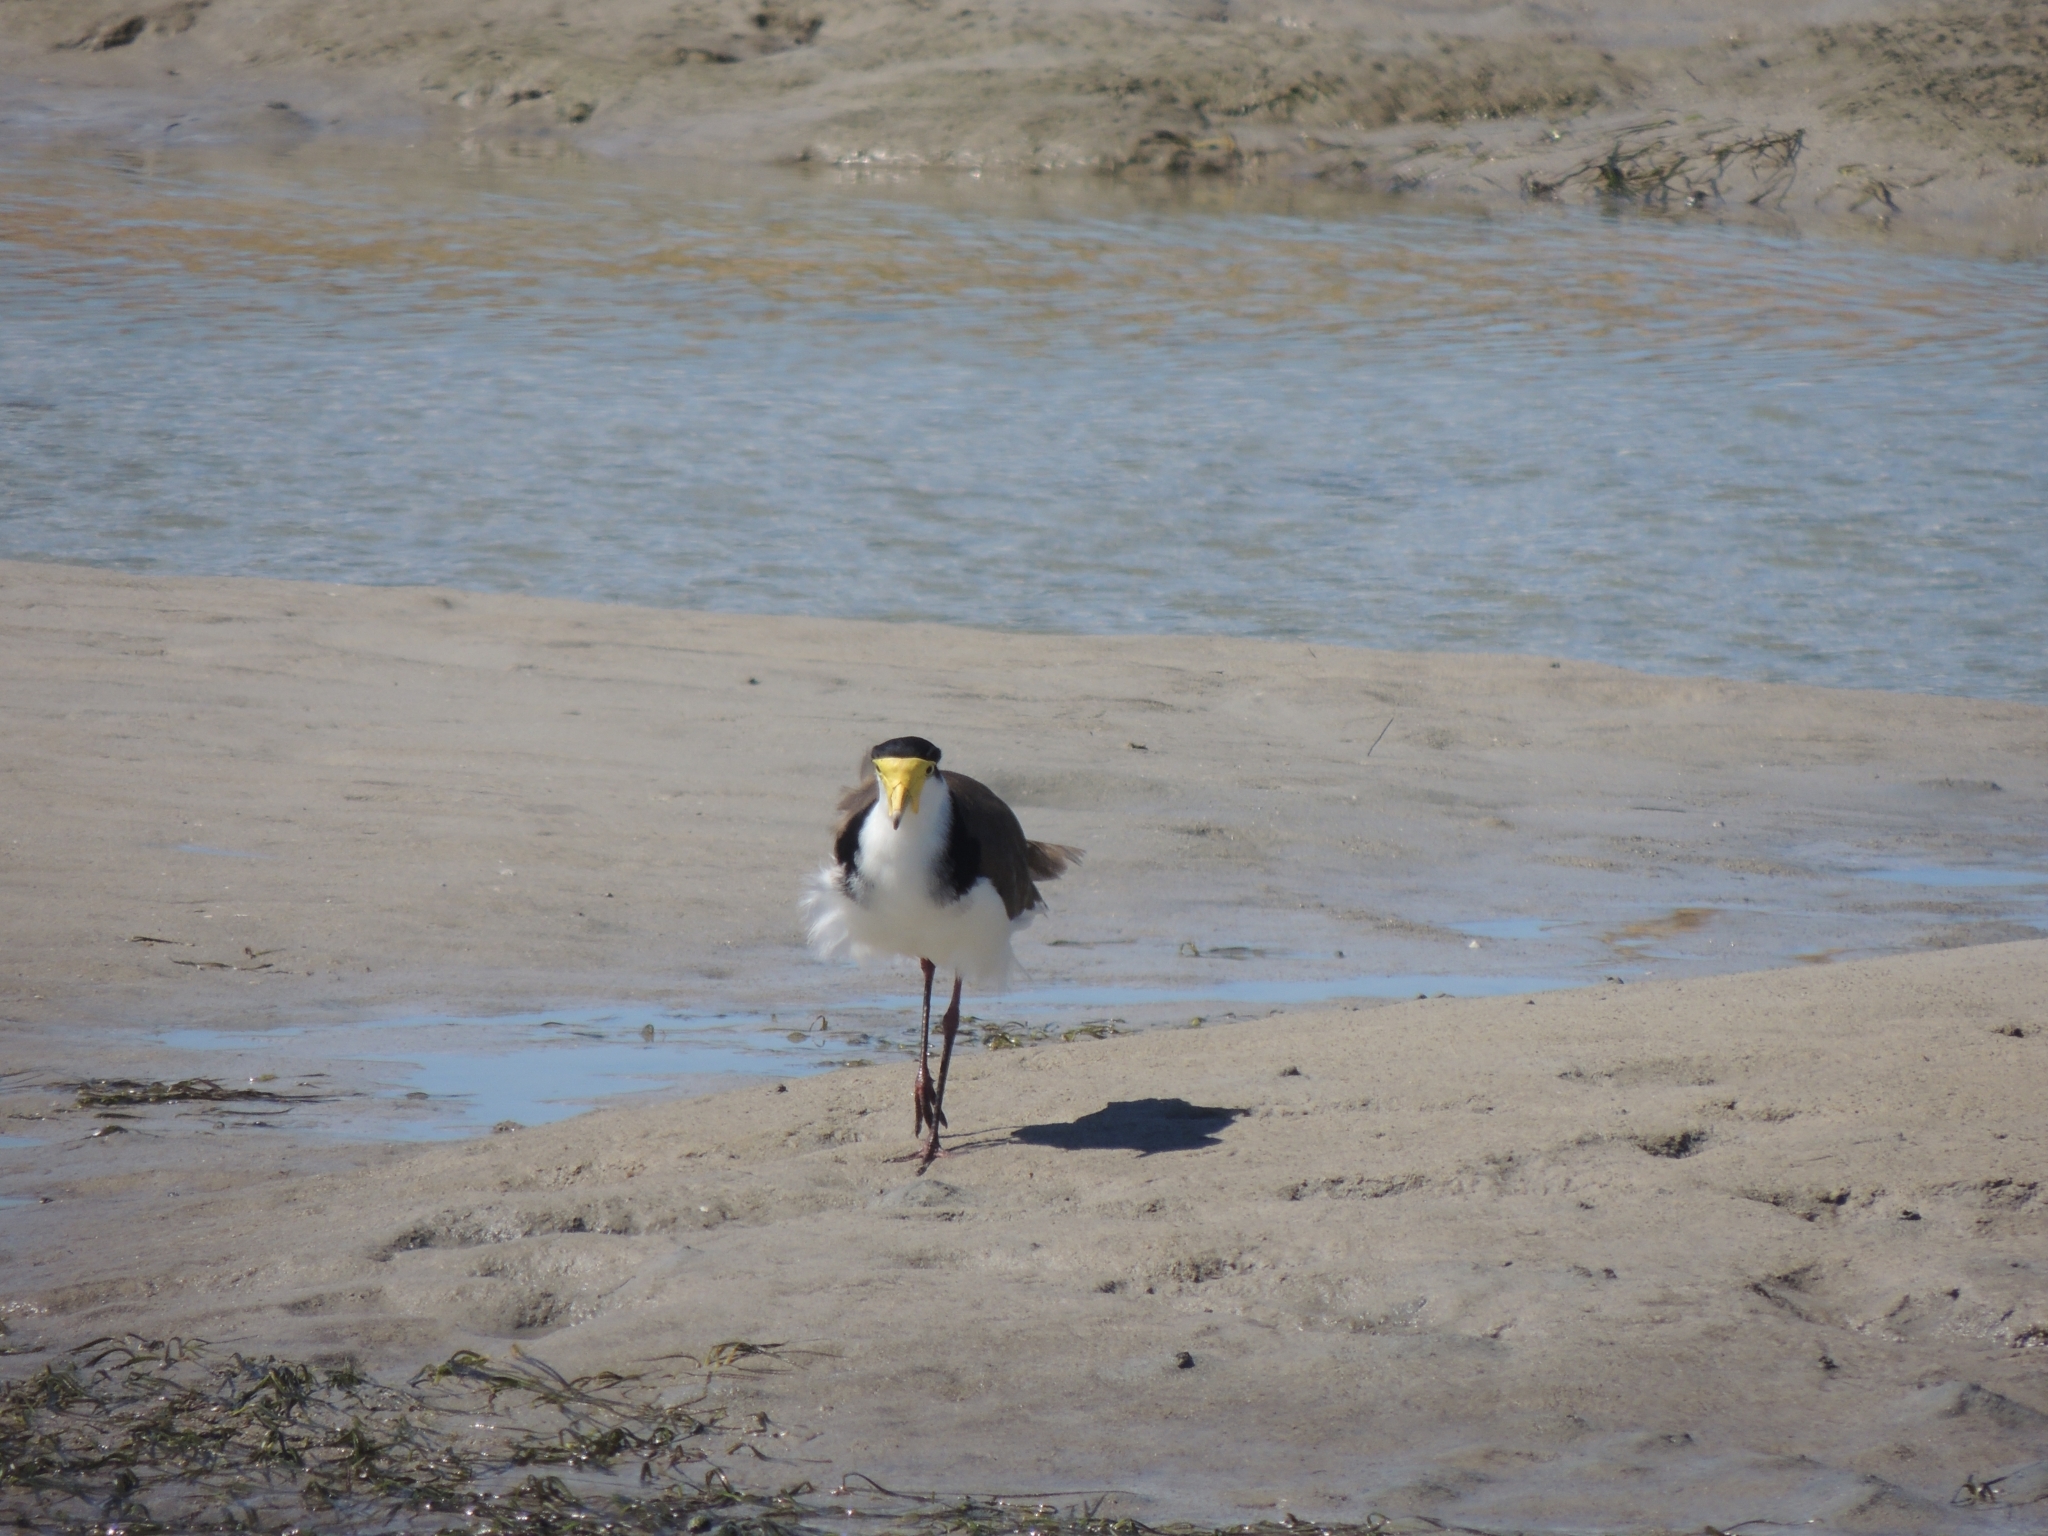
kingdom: Animalia
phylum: Chordata
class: Aves
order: Charadriiformes
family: Charadriidae
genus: Vanellus
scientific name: Vanellus miles
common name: Masked lapwing
